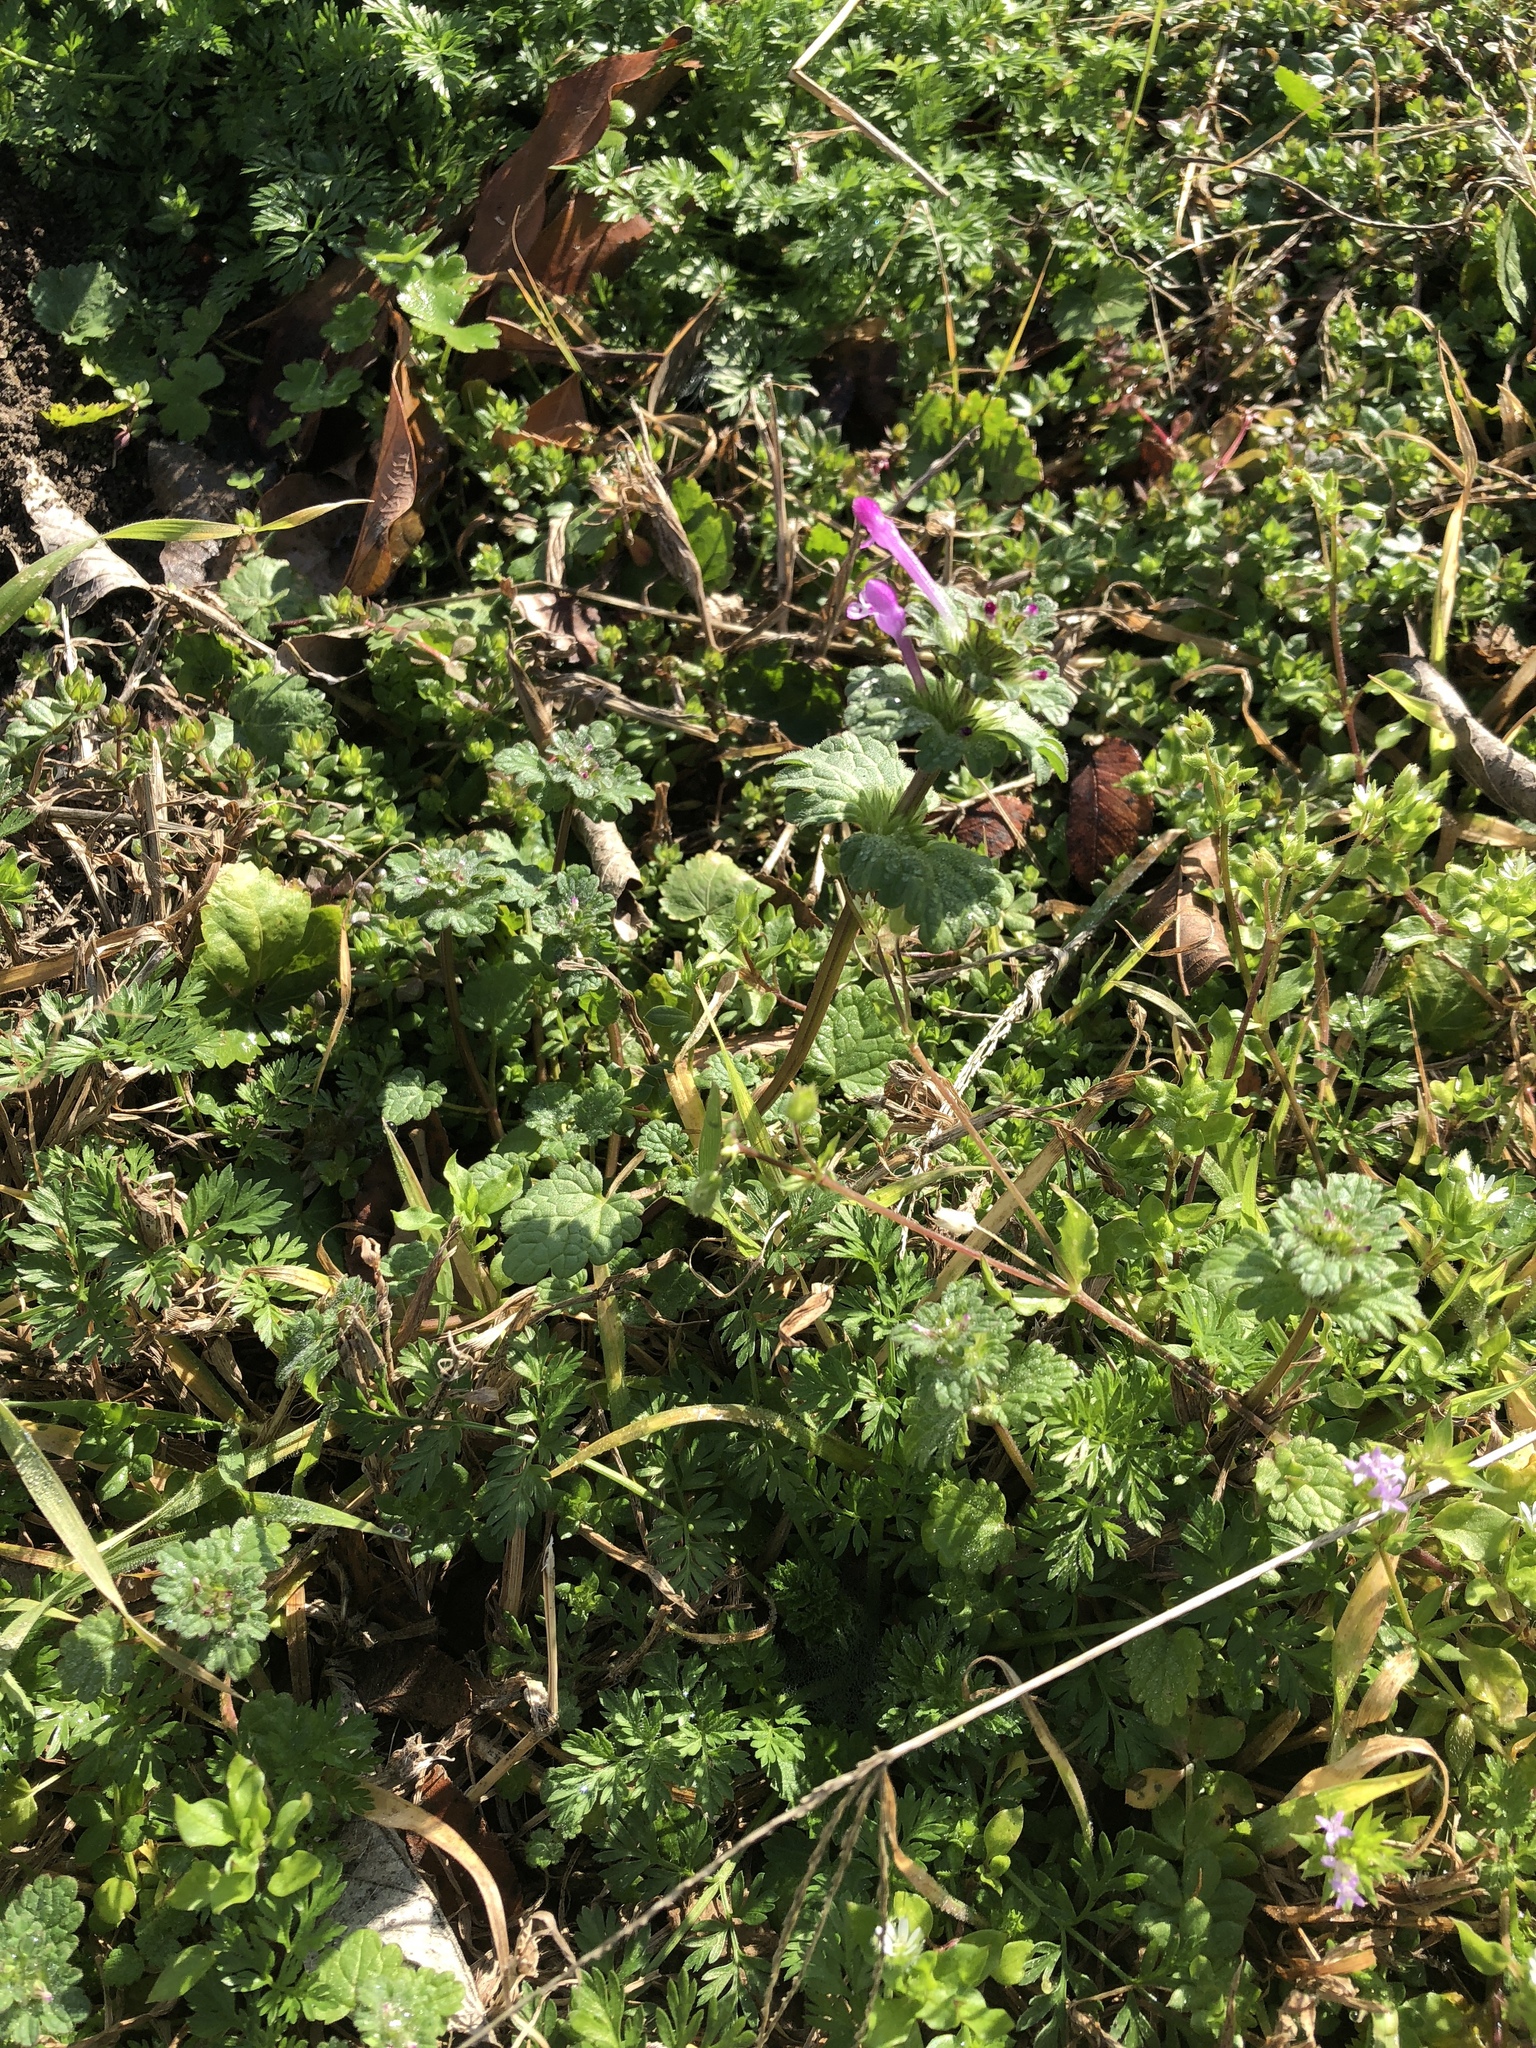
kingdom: Plantae
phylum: Tracheophyta
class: Magnoliopsida
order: Lamiales
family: Lamiaceae
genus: Lamium
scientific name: Lamium amplexicaule
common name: Henbit dead-nettle
